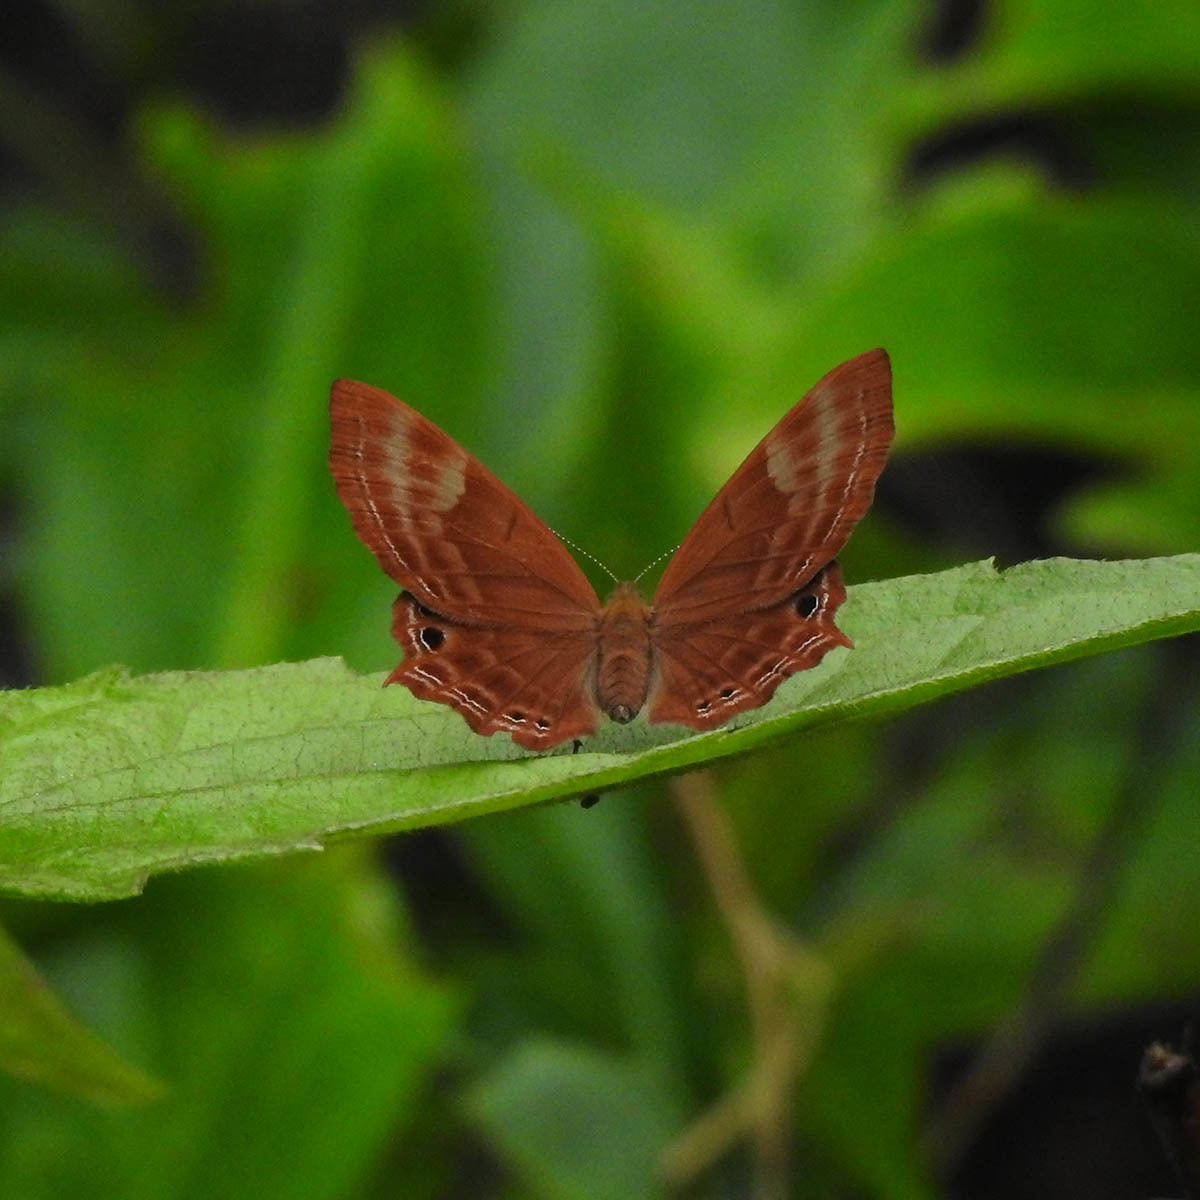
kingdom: Animalia
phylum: Arthropoda
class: Insecta
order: Lepidoptera
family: Lycaenidae
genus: Abisara
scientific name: Abisara bifasciata
